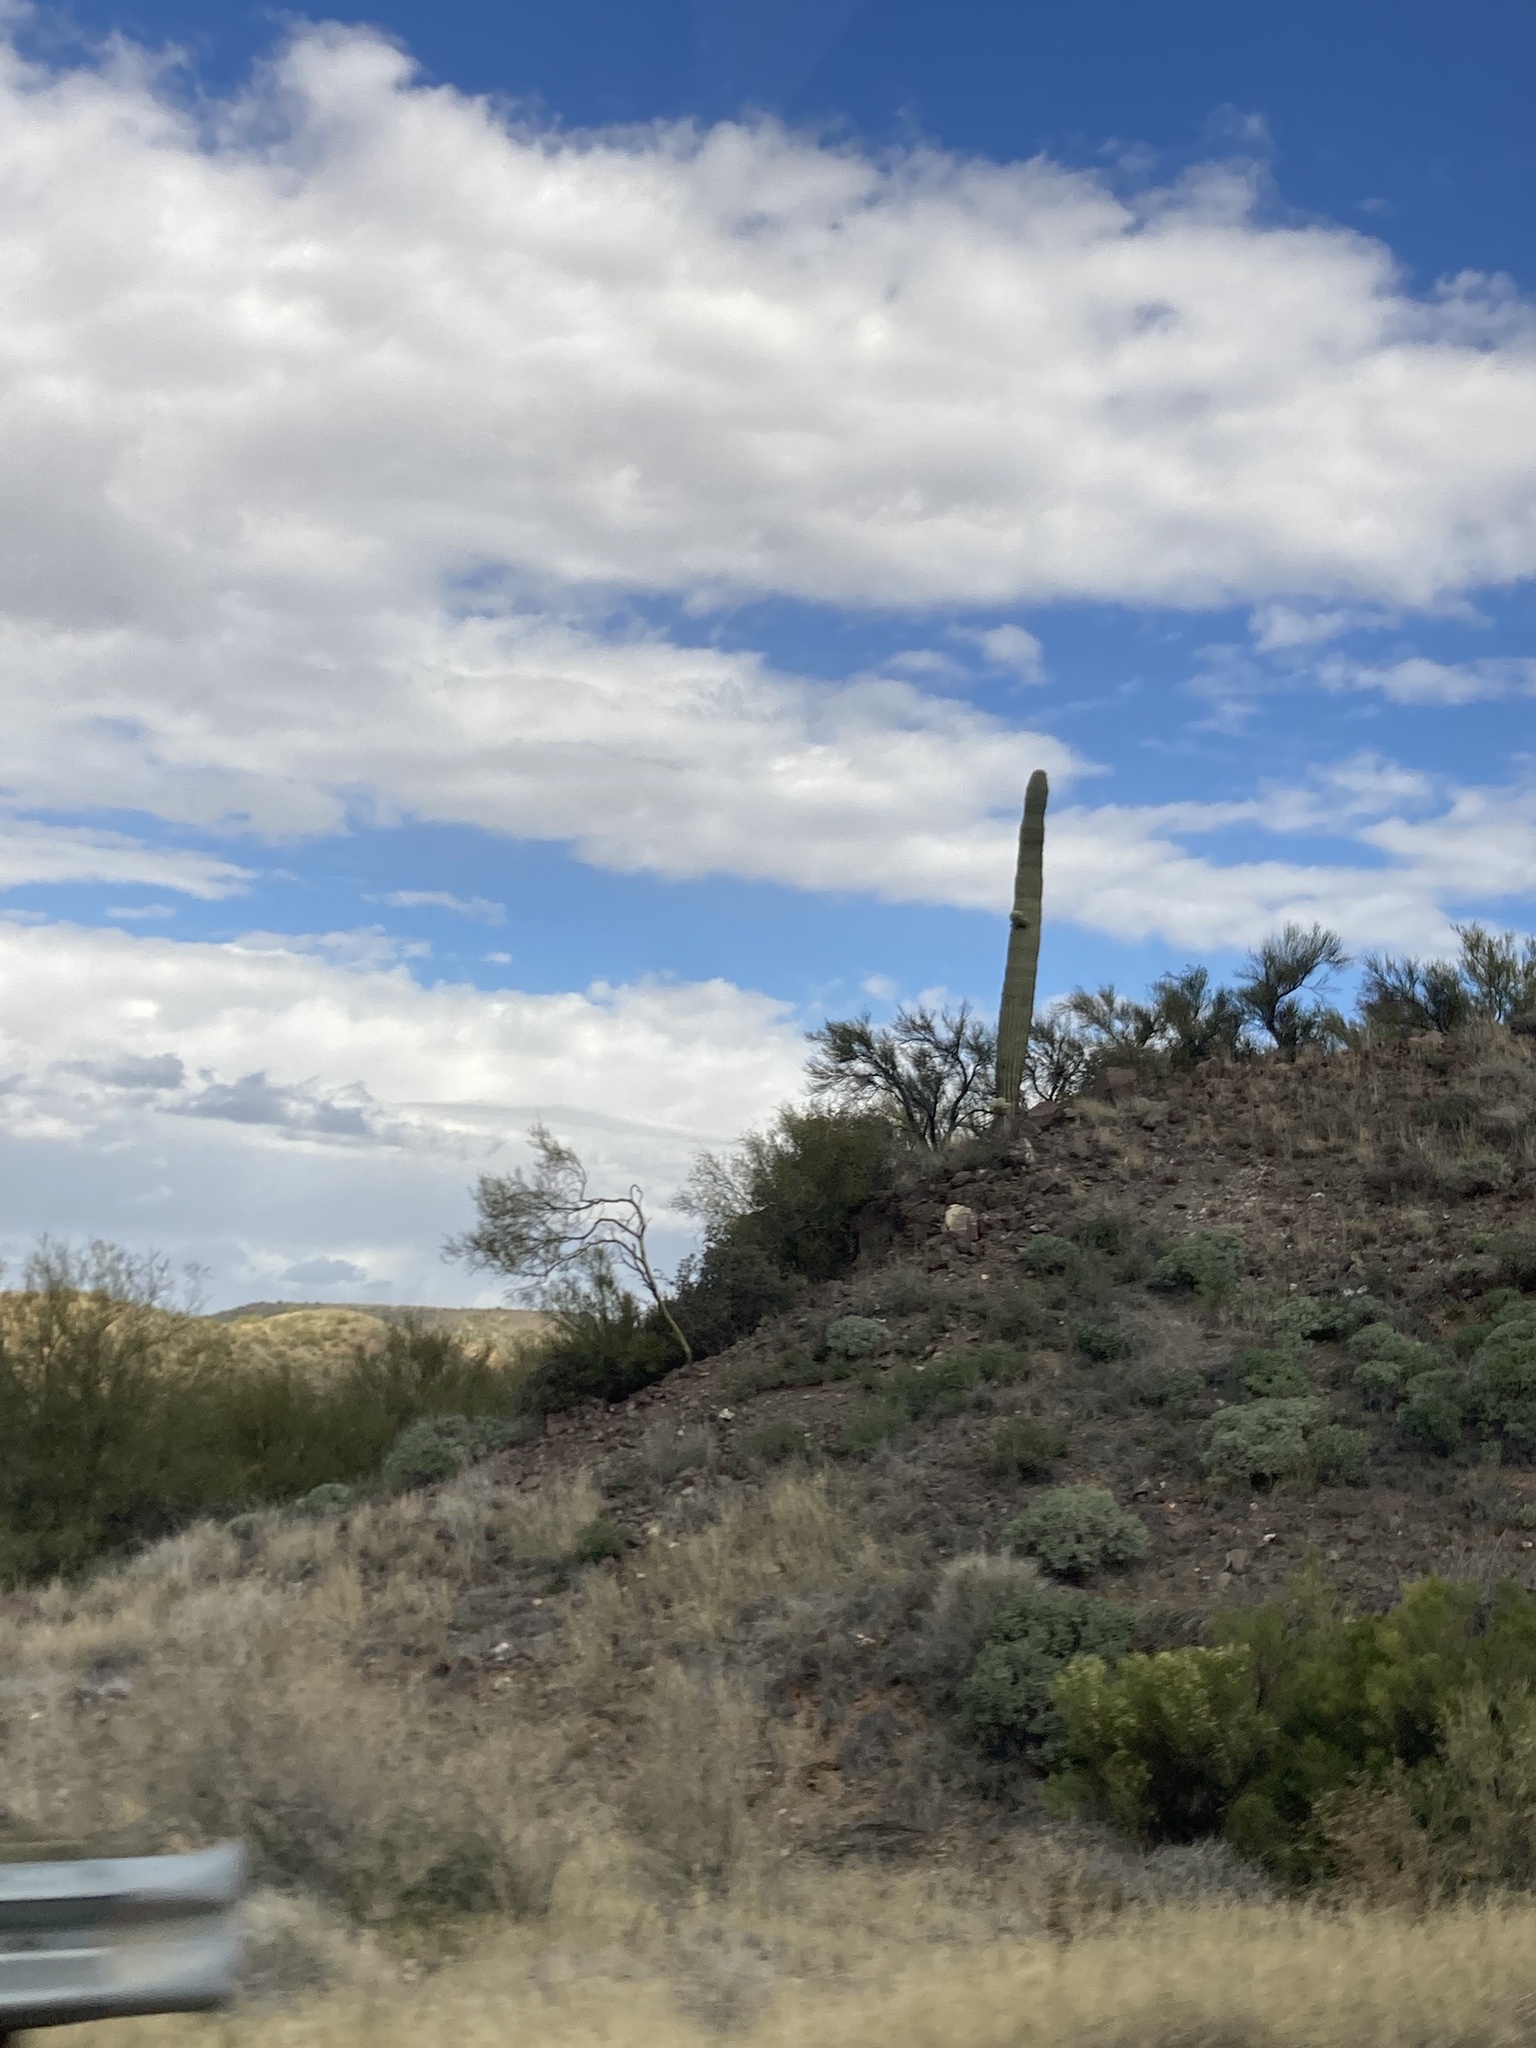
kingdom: Plantae
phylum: Tracheophyta
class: Magnoliopsida
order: Caryophyllales
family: Cactaceae
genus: Carnegiea
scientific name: Carnegiea gigantea
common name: Saguaro
